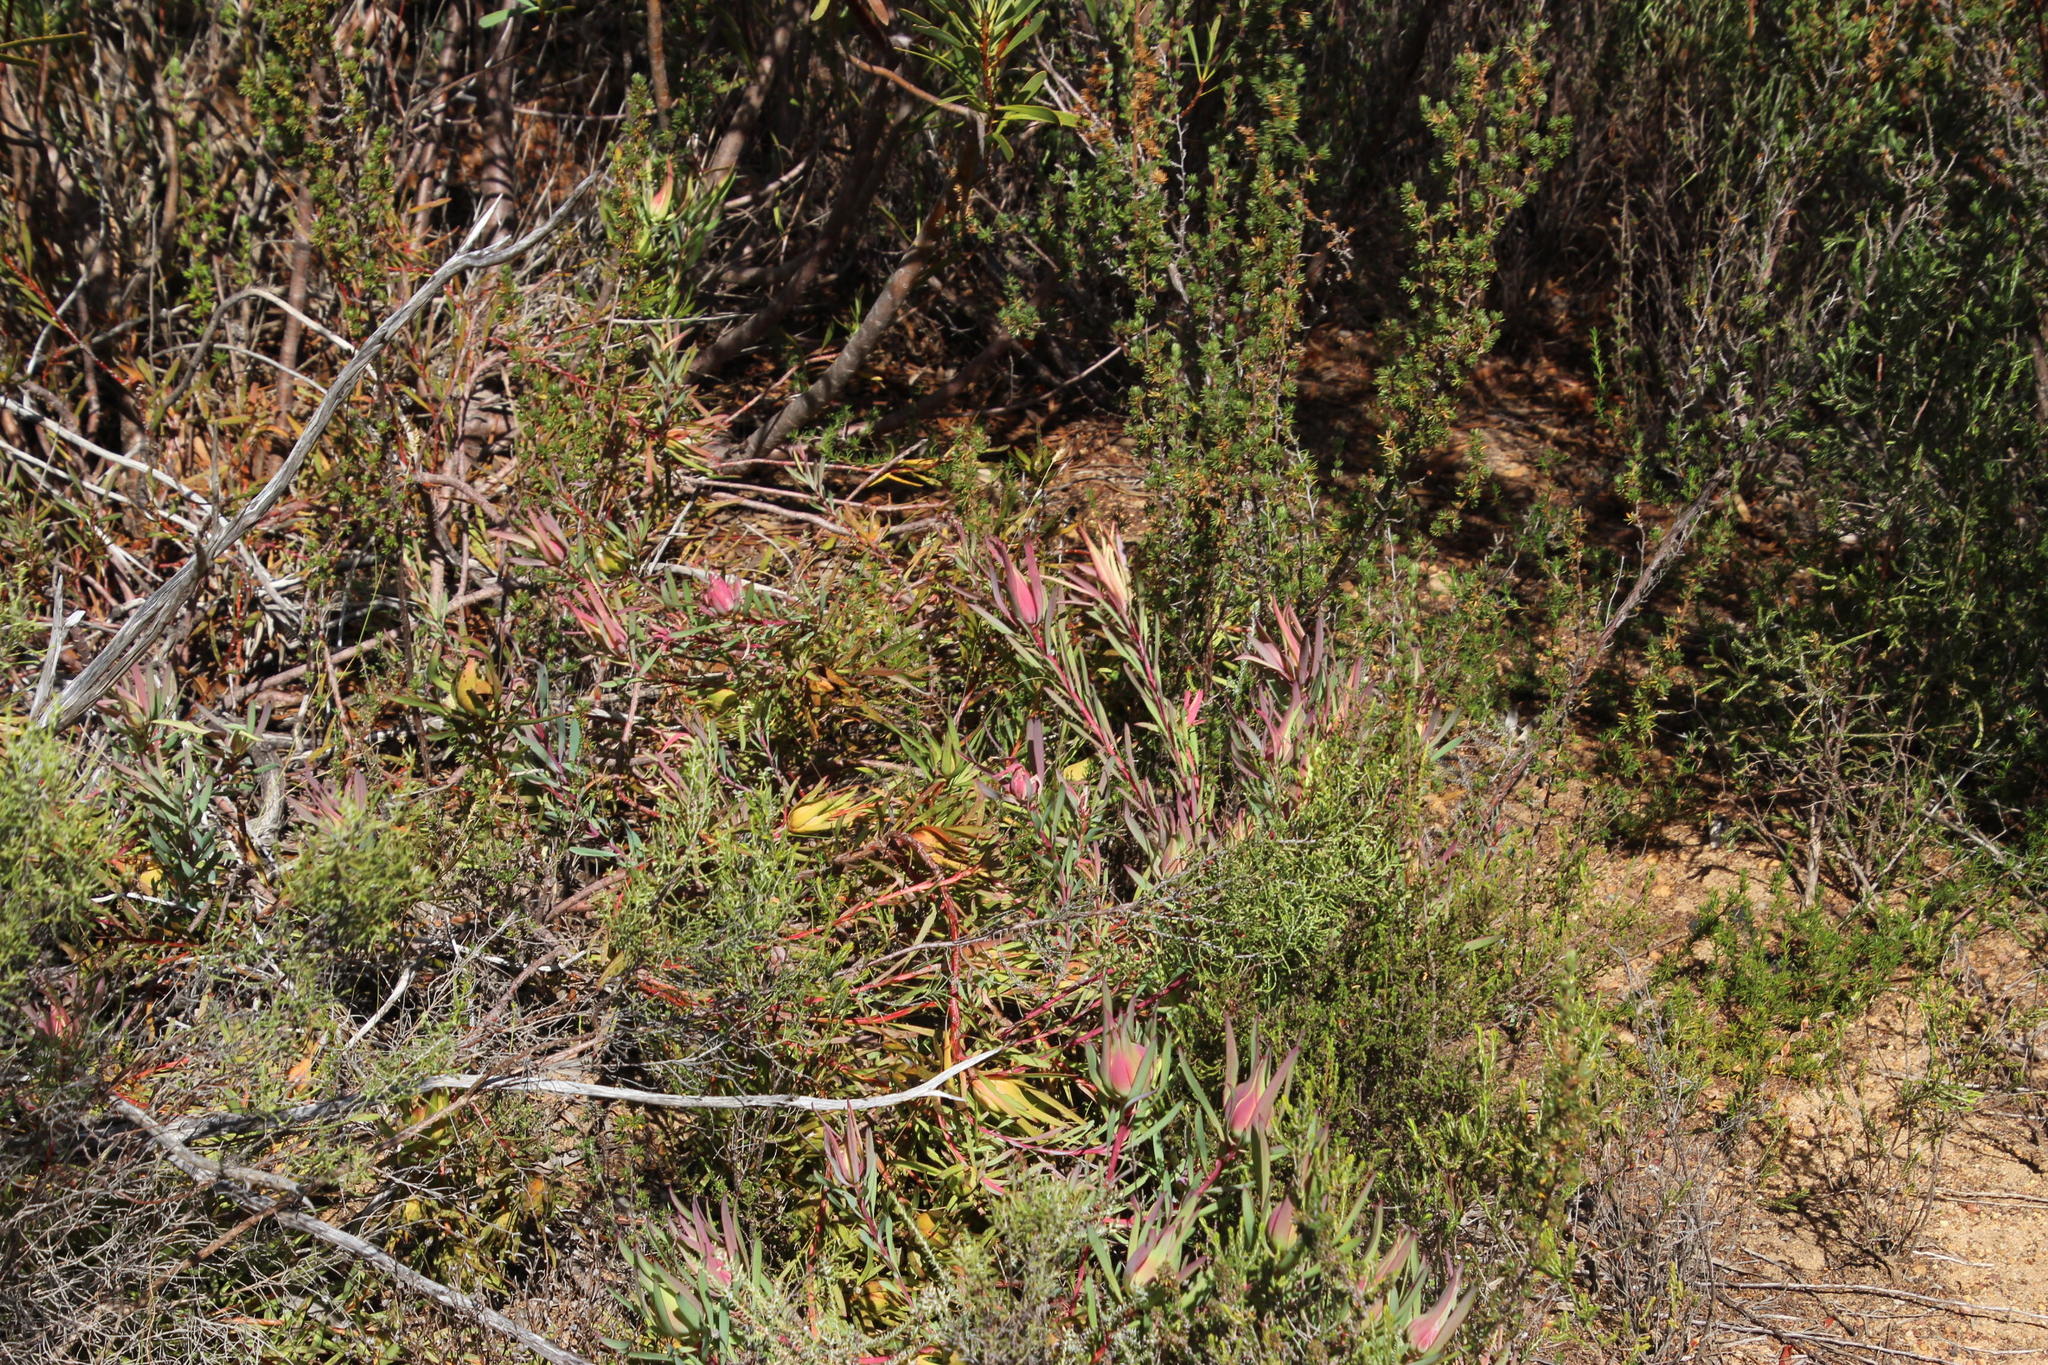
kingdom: Plantae
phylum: Tracheophyta
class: Magnoliopsida
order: Proteales
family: Proteaceae
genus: Leucadendron
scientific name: Leucadendron salignum
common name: Common sunshine conebush
